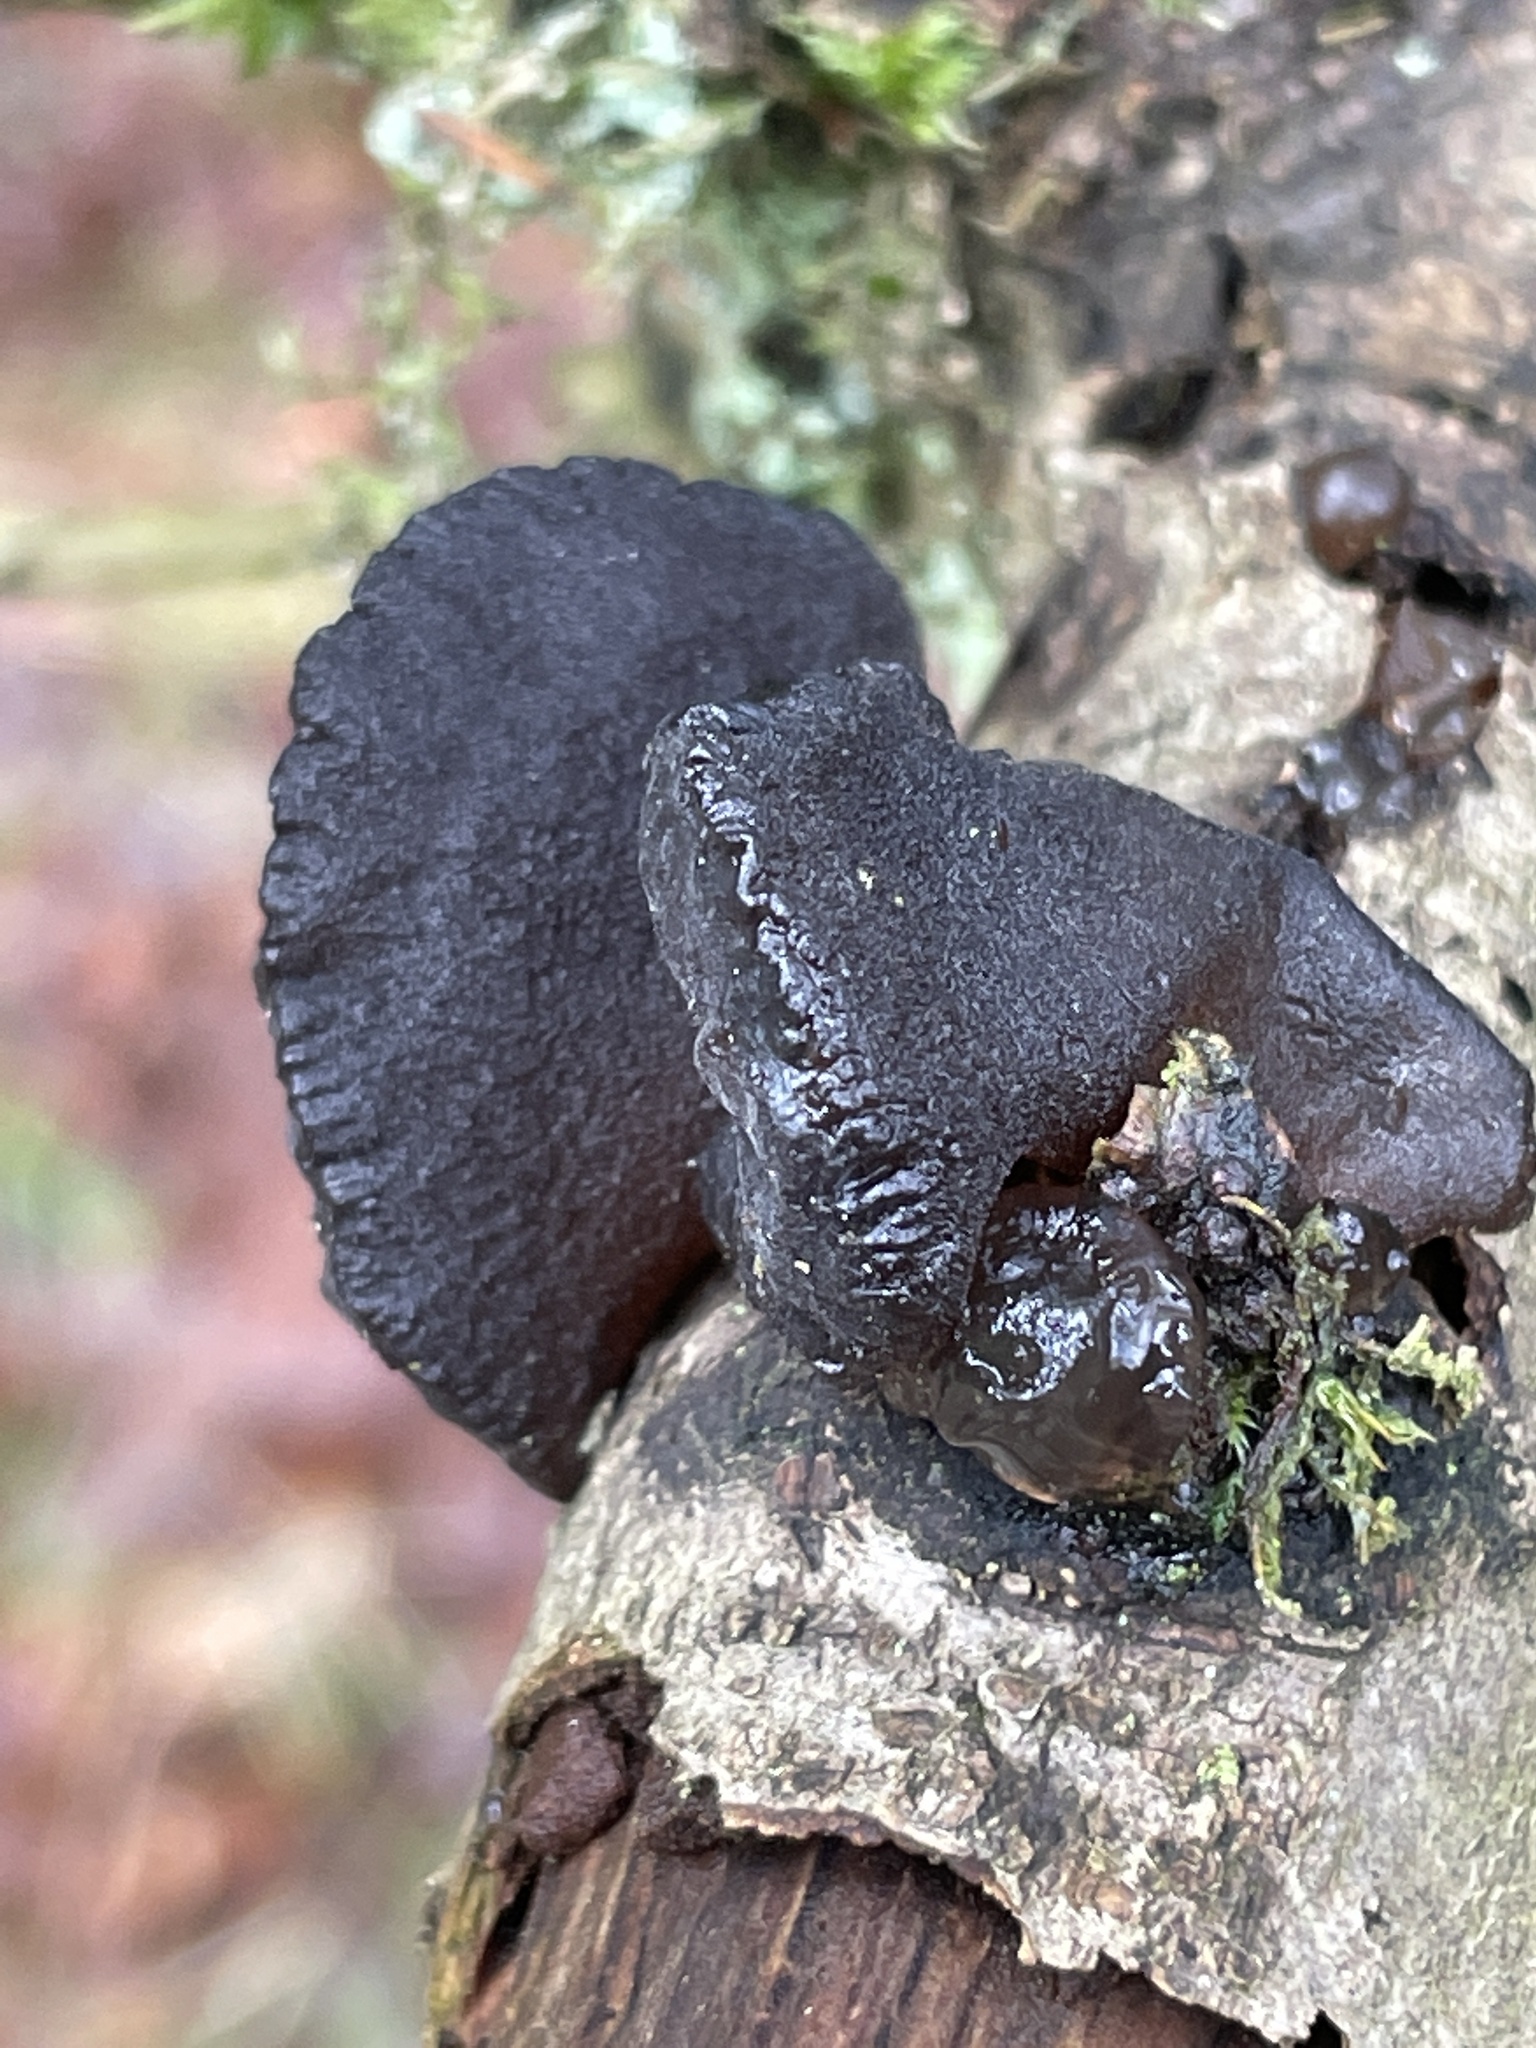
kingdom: Fungi
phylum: Basidiomycota
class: Agaricomycetes
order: Auriculariales
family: Auriculariaceae
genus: Exidia
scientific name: Exidia glandulosa
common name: Witches' butter
